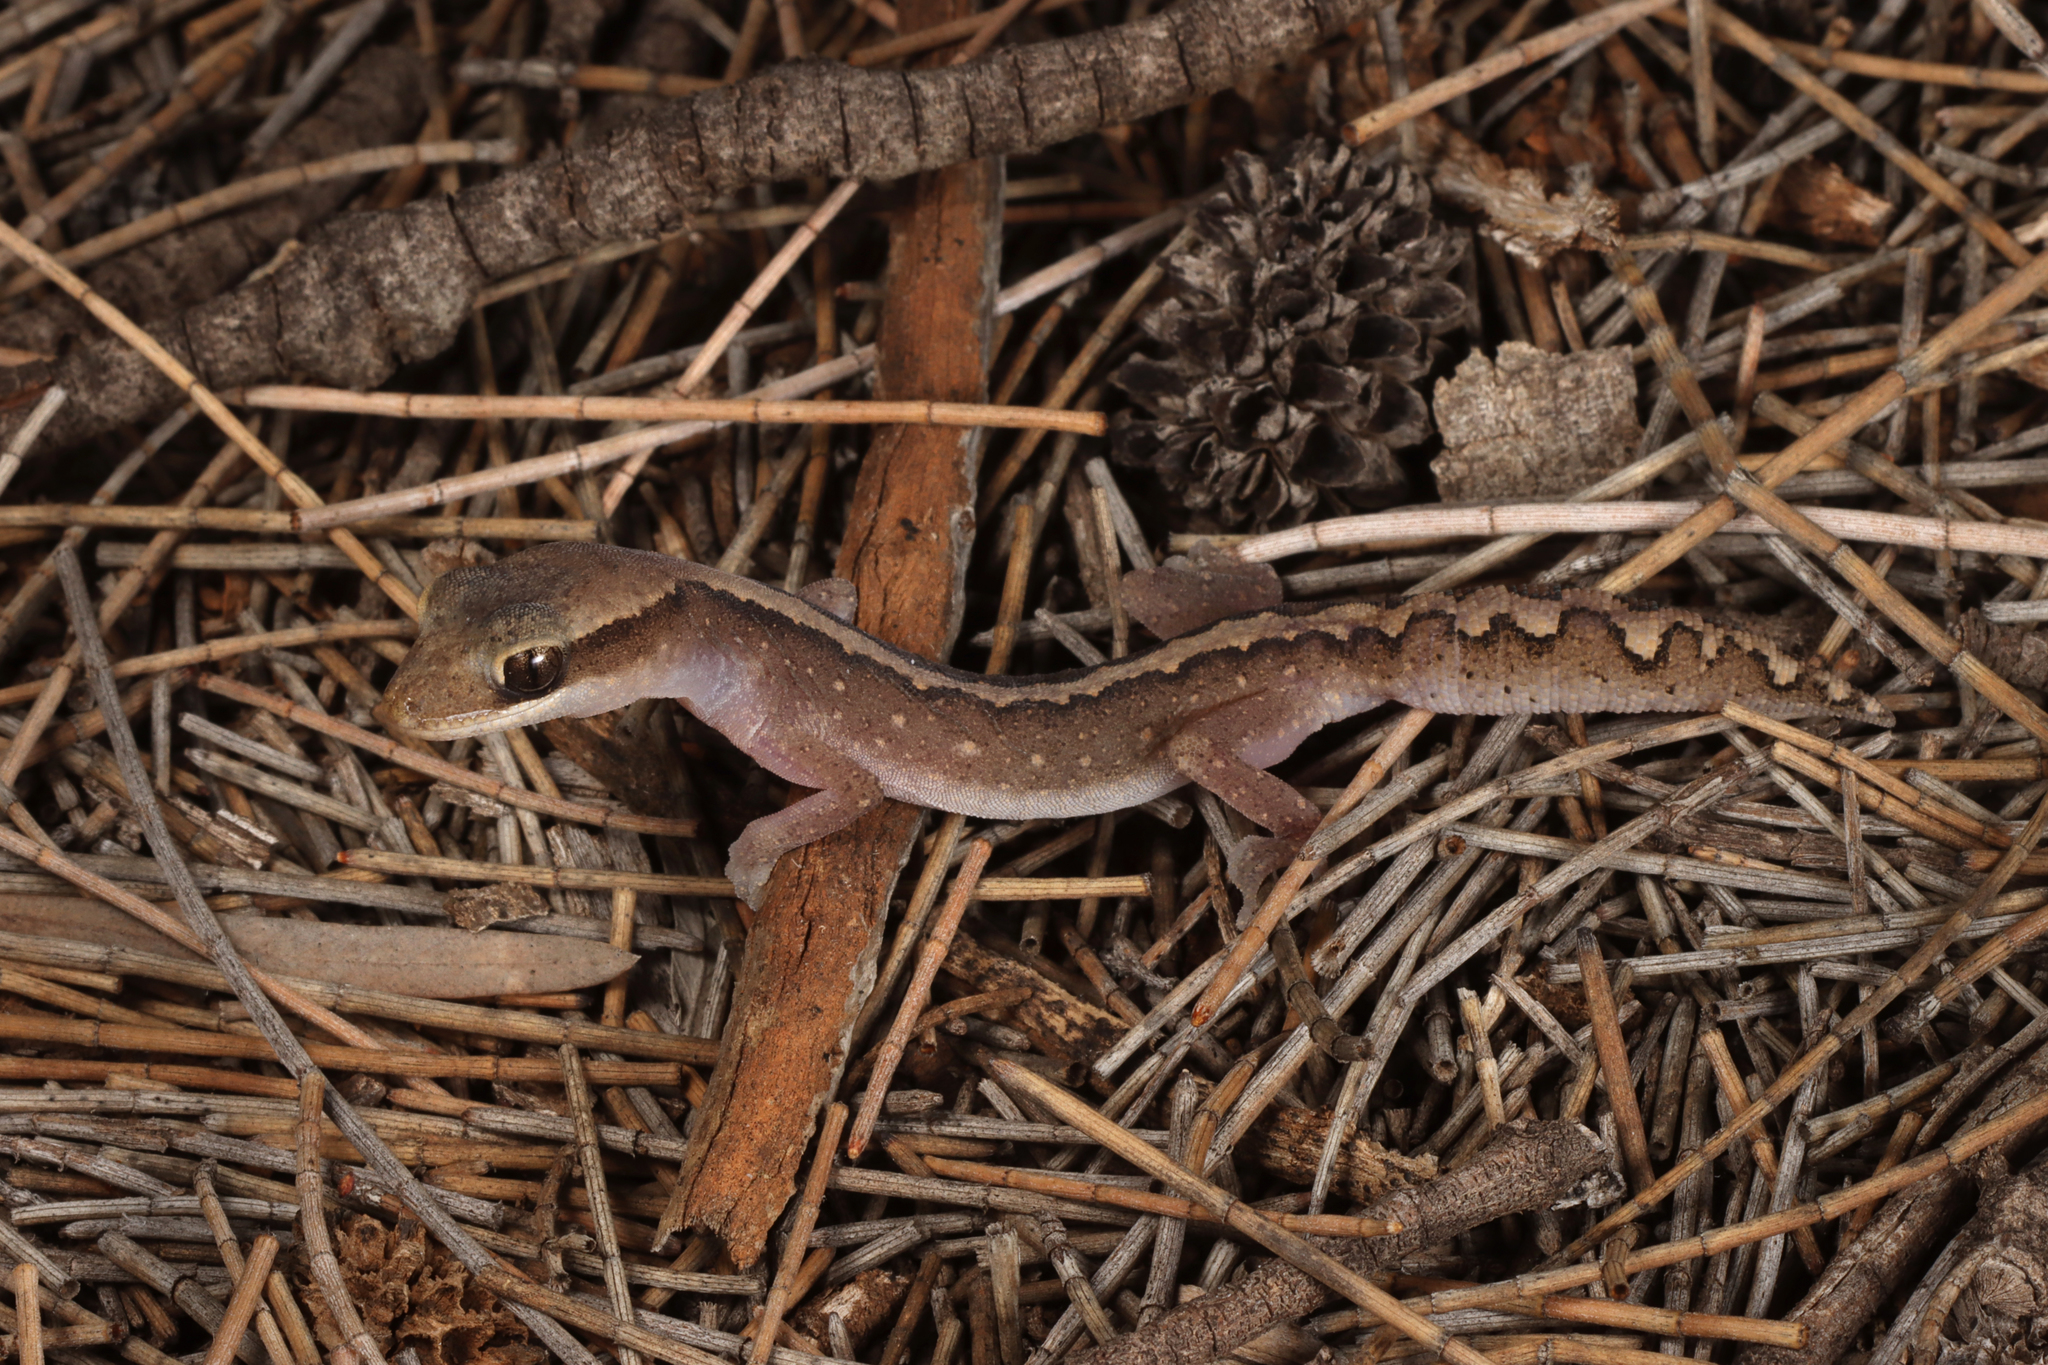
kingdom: Animalia
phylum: Chordata
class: Squamata
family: Diplodactylidae
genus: Diplodactylus
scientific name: Diplodactylus vittatus
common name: Eastern stone gecko
